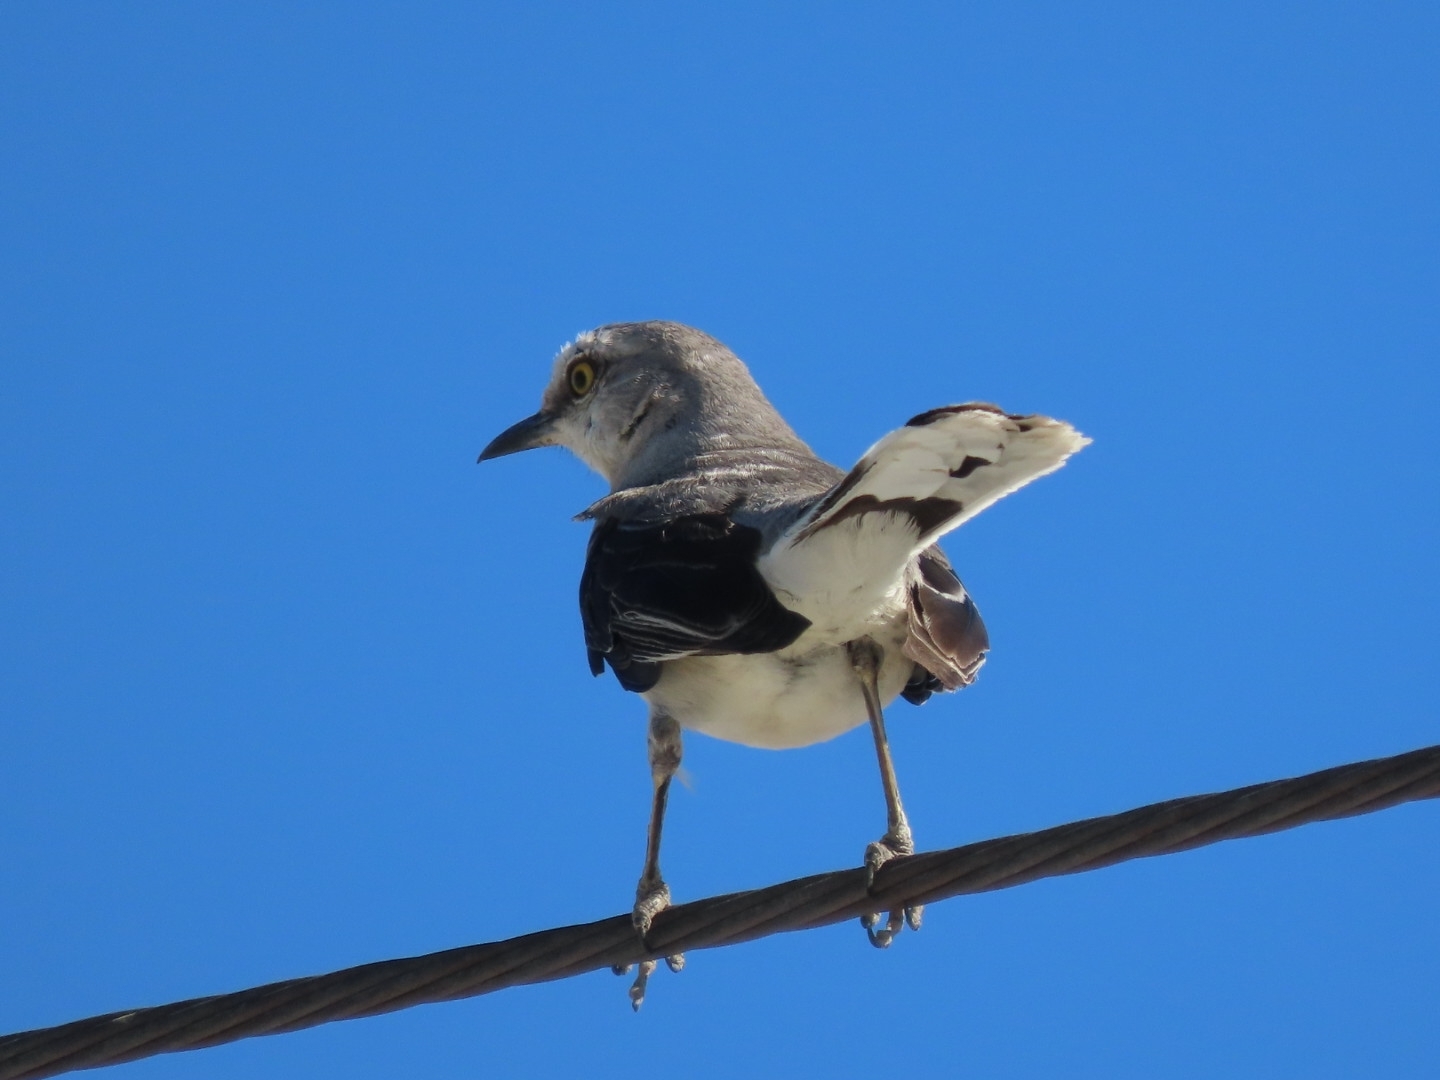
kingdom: Animalia
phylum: Chordata
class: Aves
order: Passeriformes
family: Mimidae
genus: Mimus
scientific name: Mimus gilvus
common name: Tropical mockingbird
